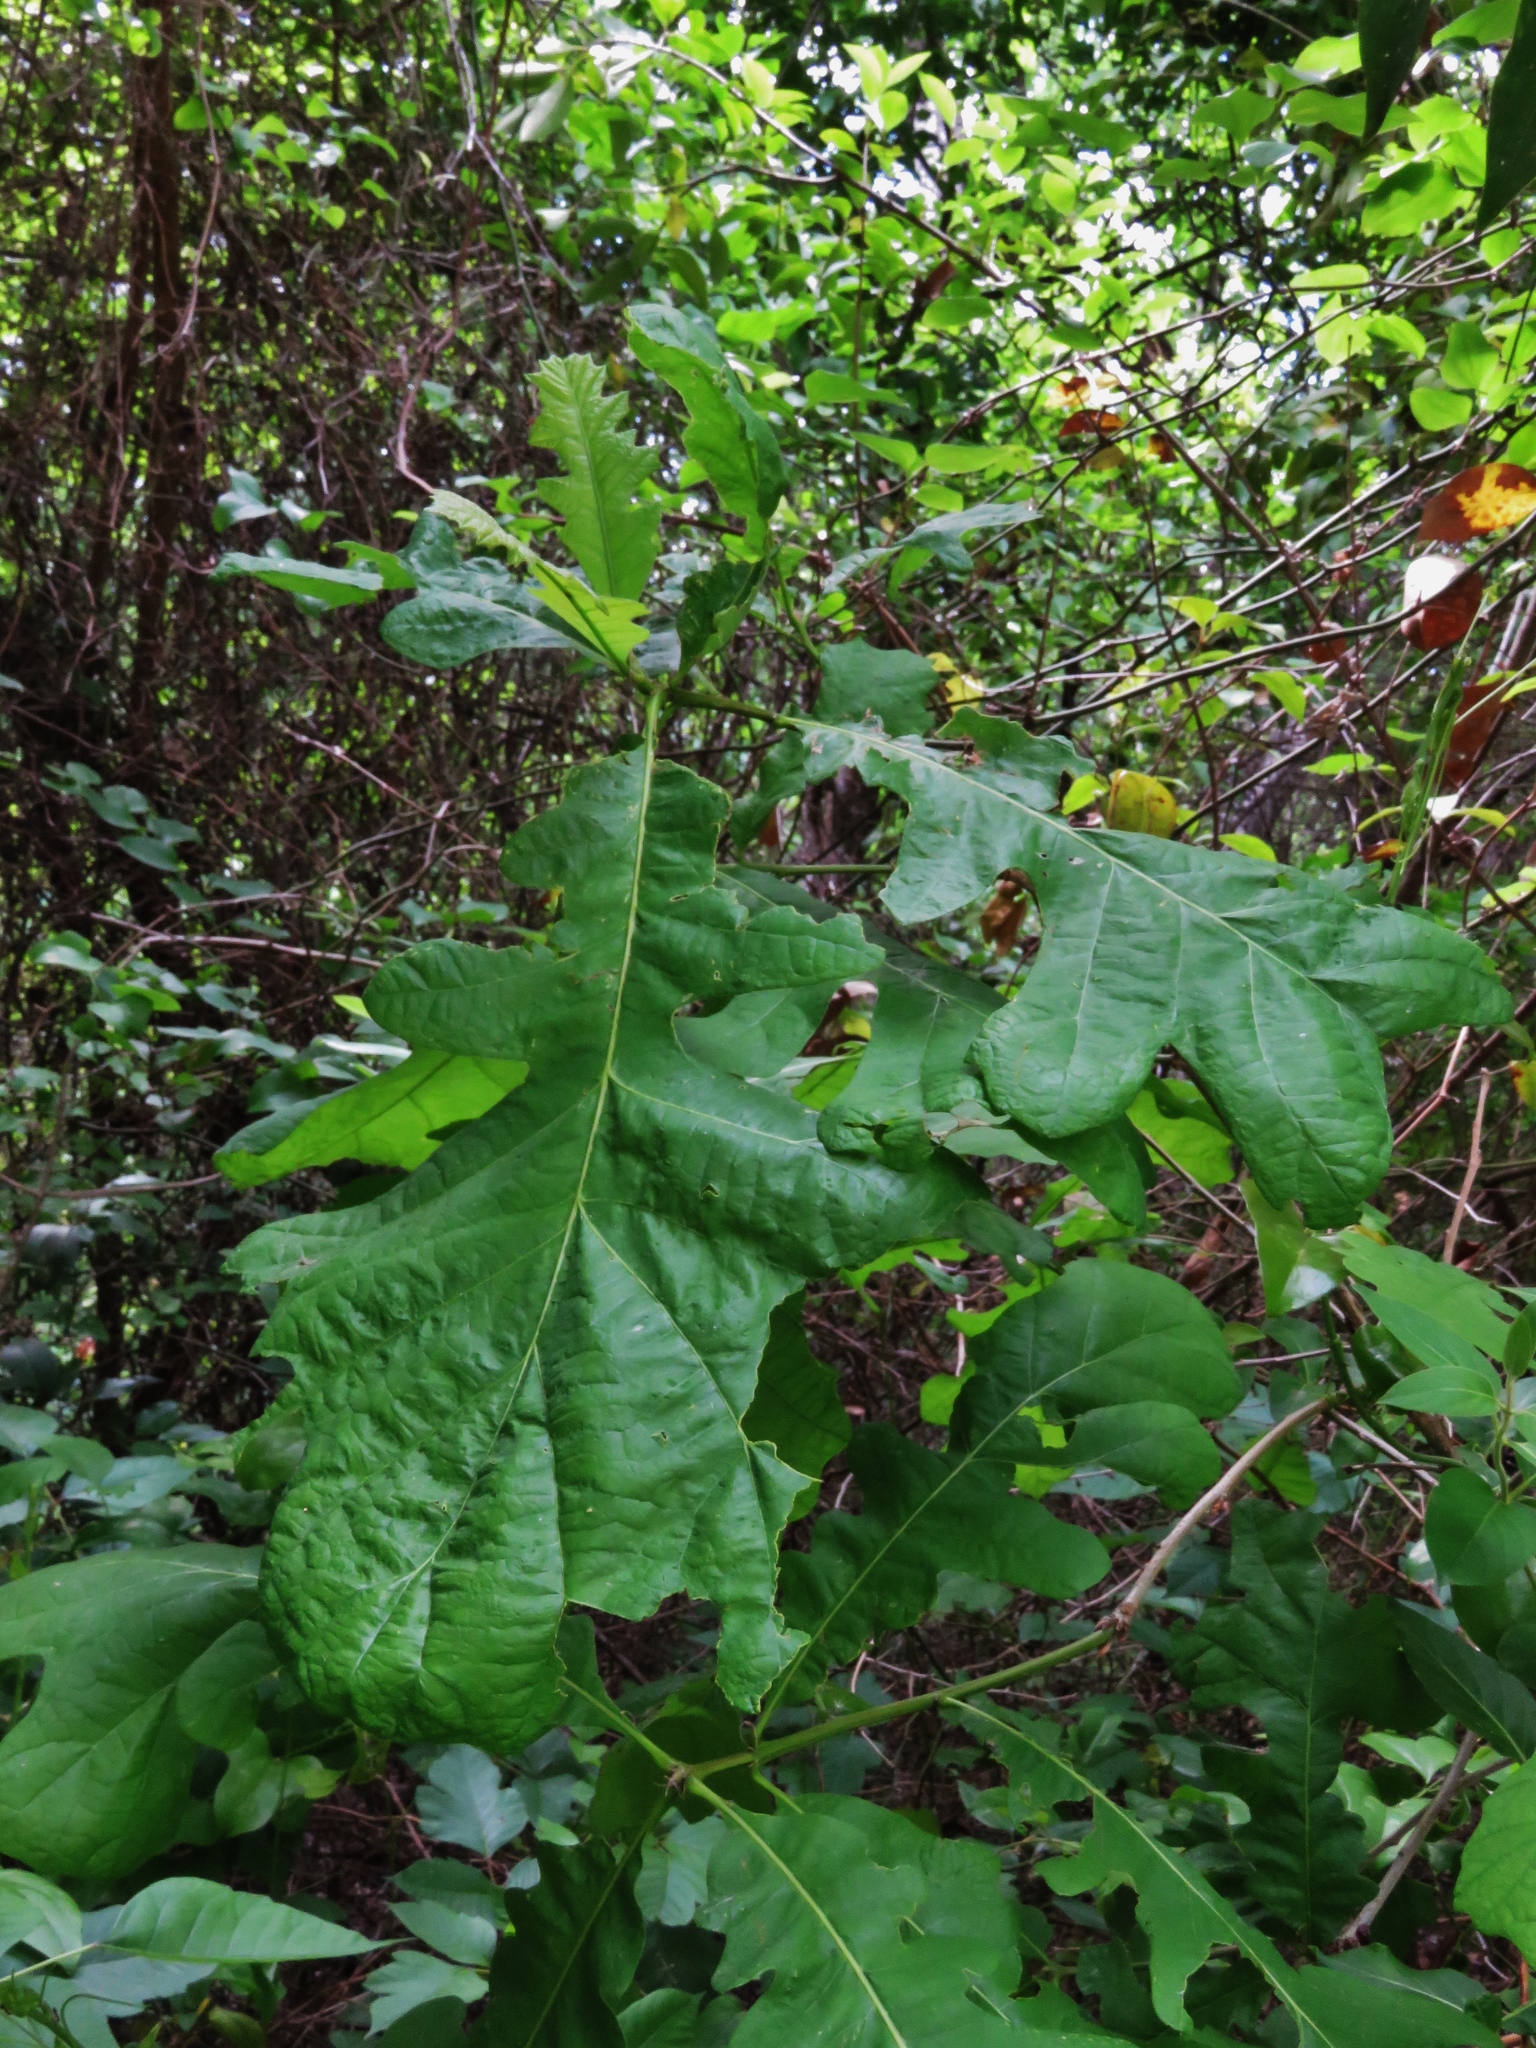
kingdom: Plantae
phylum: Tracheophyta
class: Magnoliopsida
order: Fagales
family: Fagaceae
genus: Quercus
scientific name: Quercus macrocarpa
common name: Bur oak
